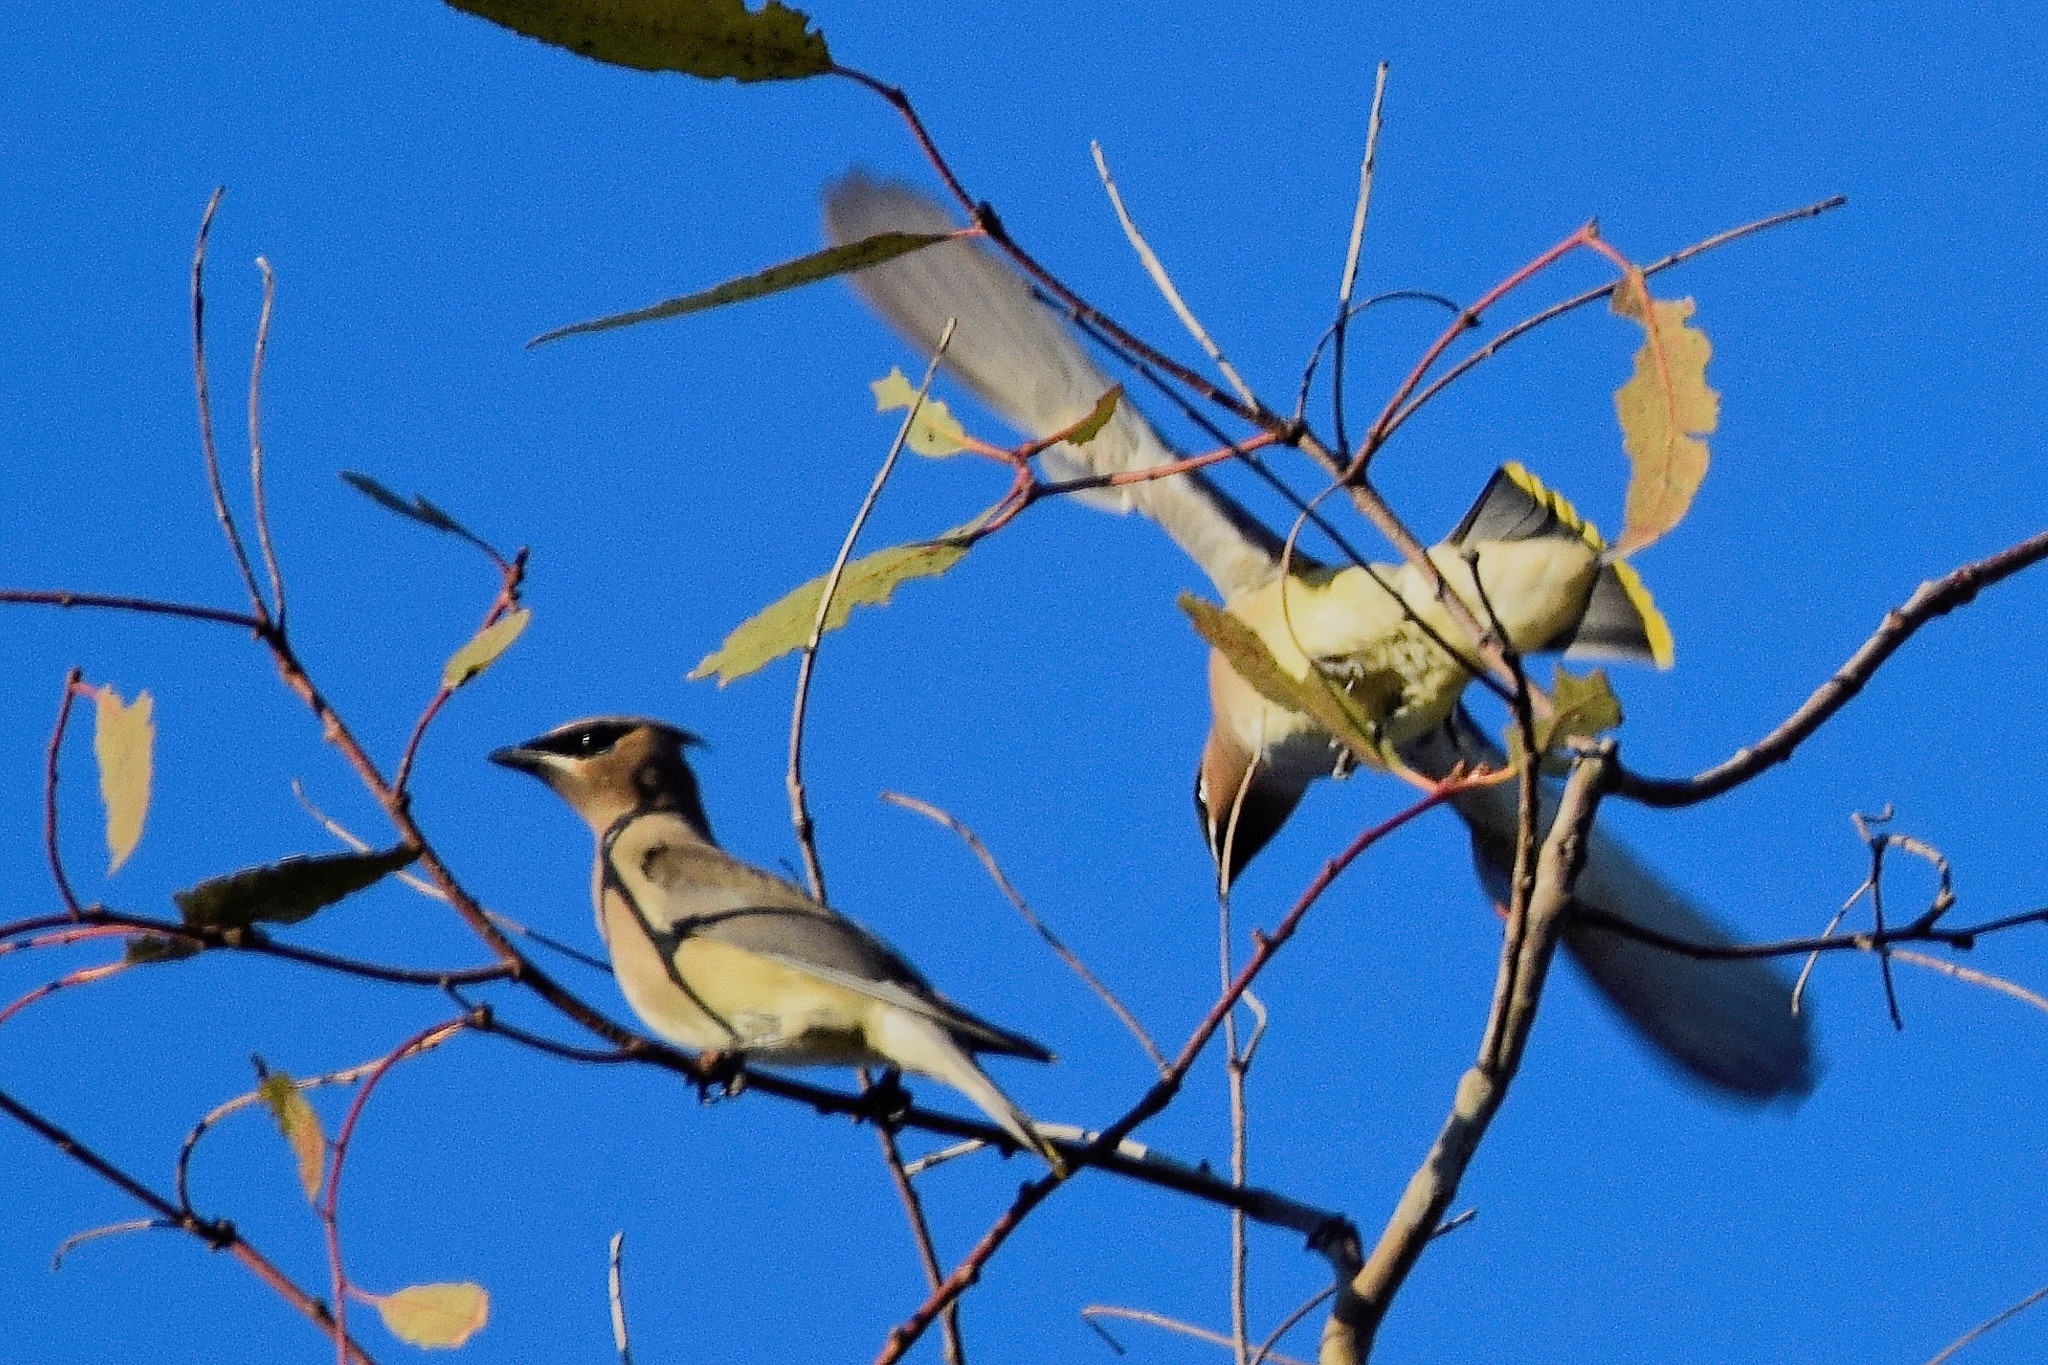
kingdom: Animalia
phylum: Chordata
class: Aves
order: Passeriformes
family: Bombycillidae
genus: Bombycilla
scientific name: Bombycilla cedrorum
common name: Cedar waxwing
